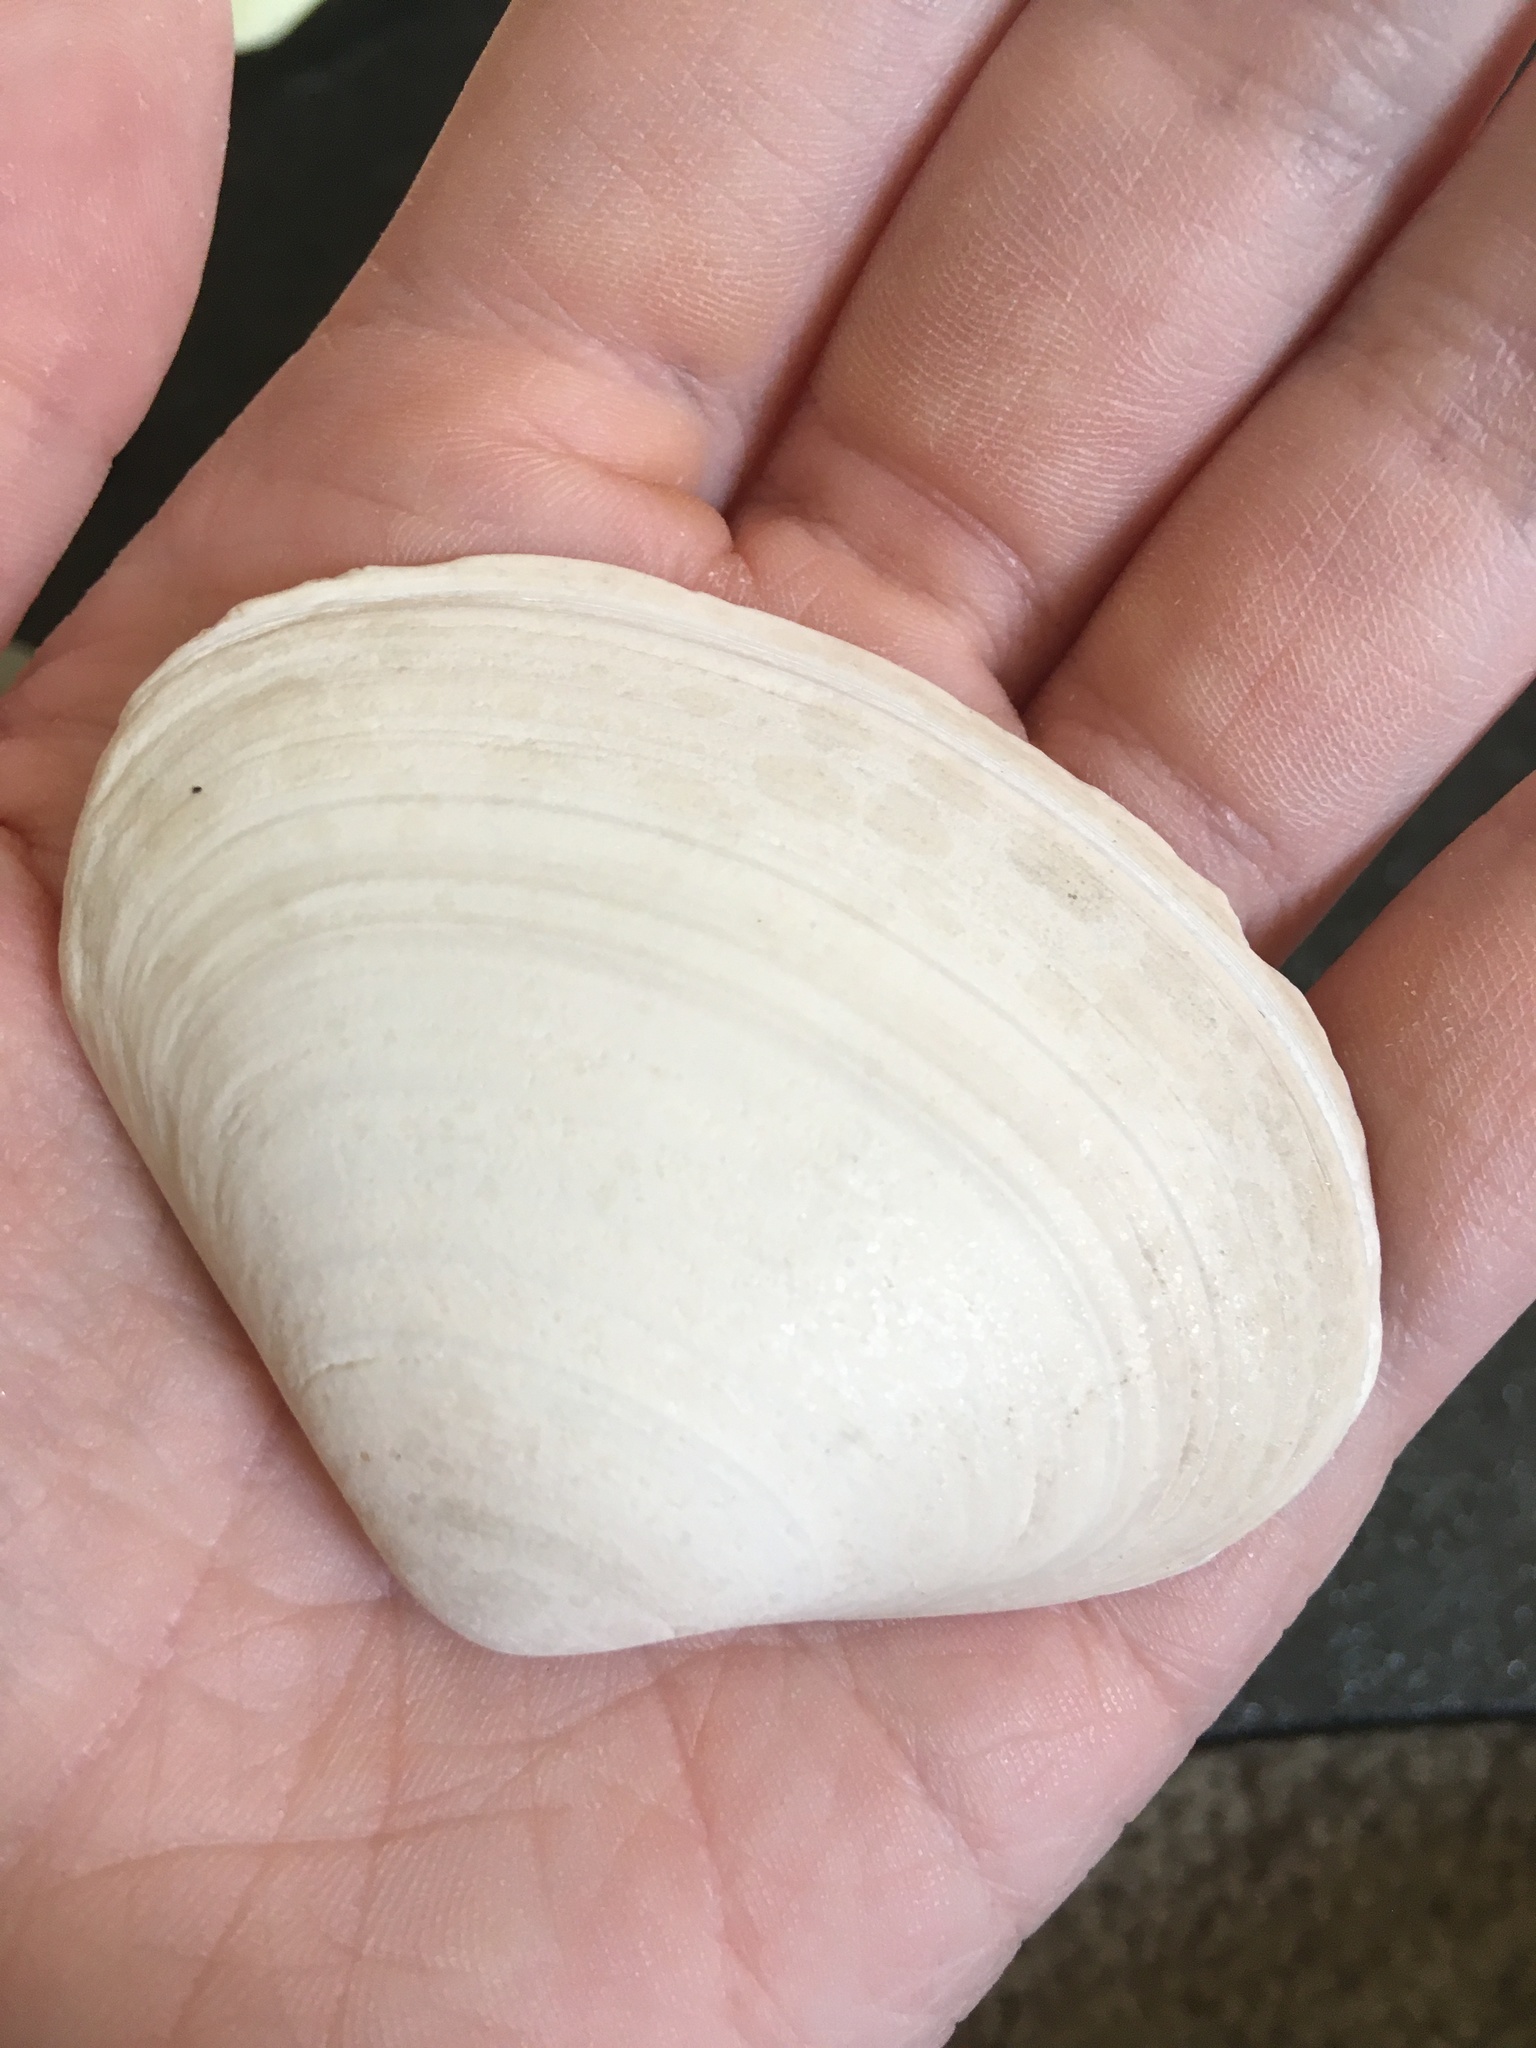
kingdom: Animalia
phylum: Mollusca
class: Bivalvia
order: Venerida
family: Mactridae
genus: Spisula
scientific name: Spisula raveneli
